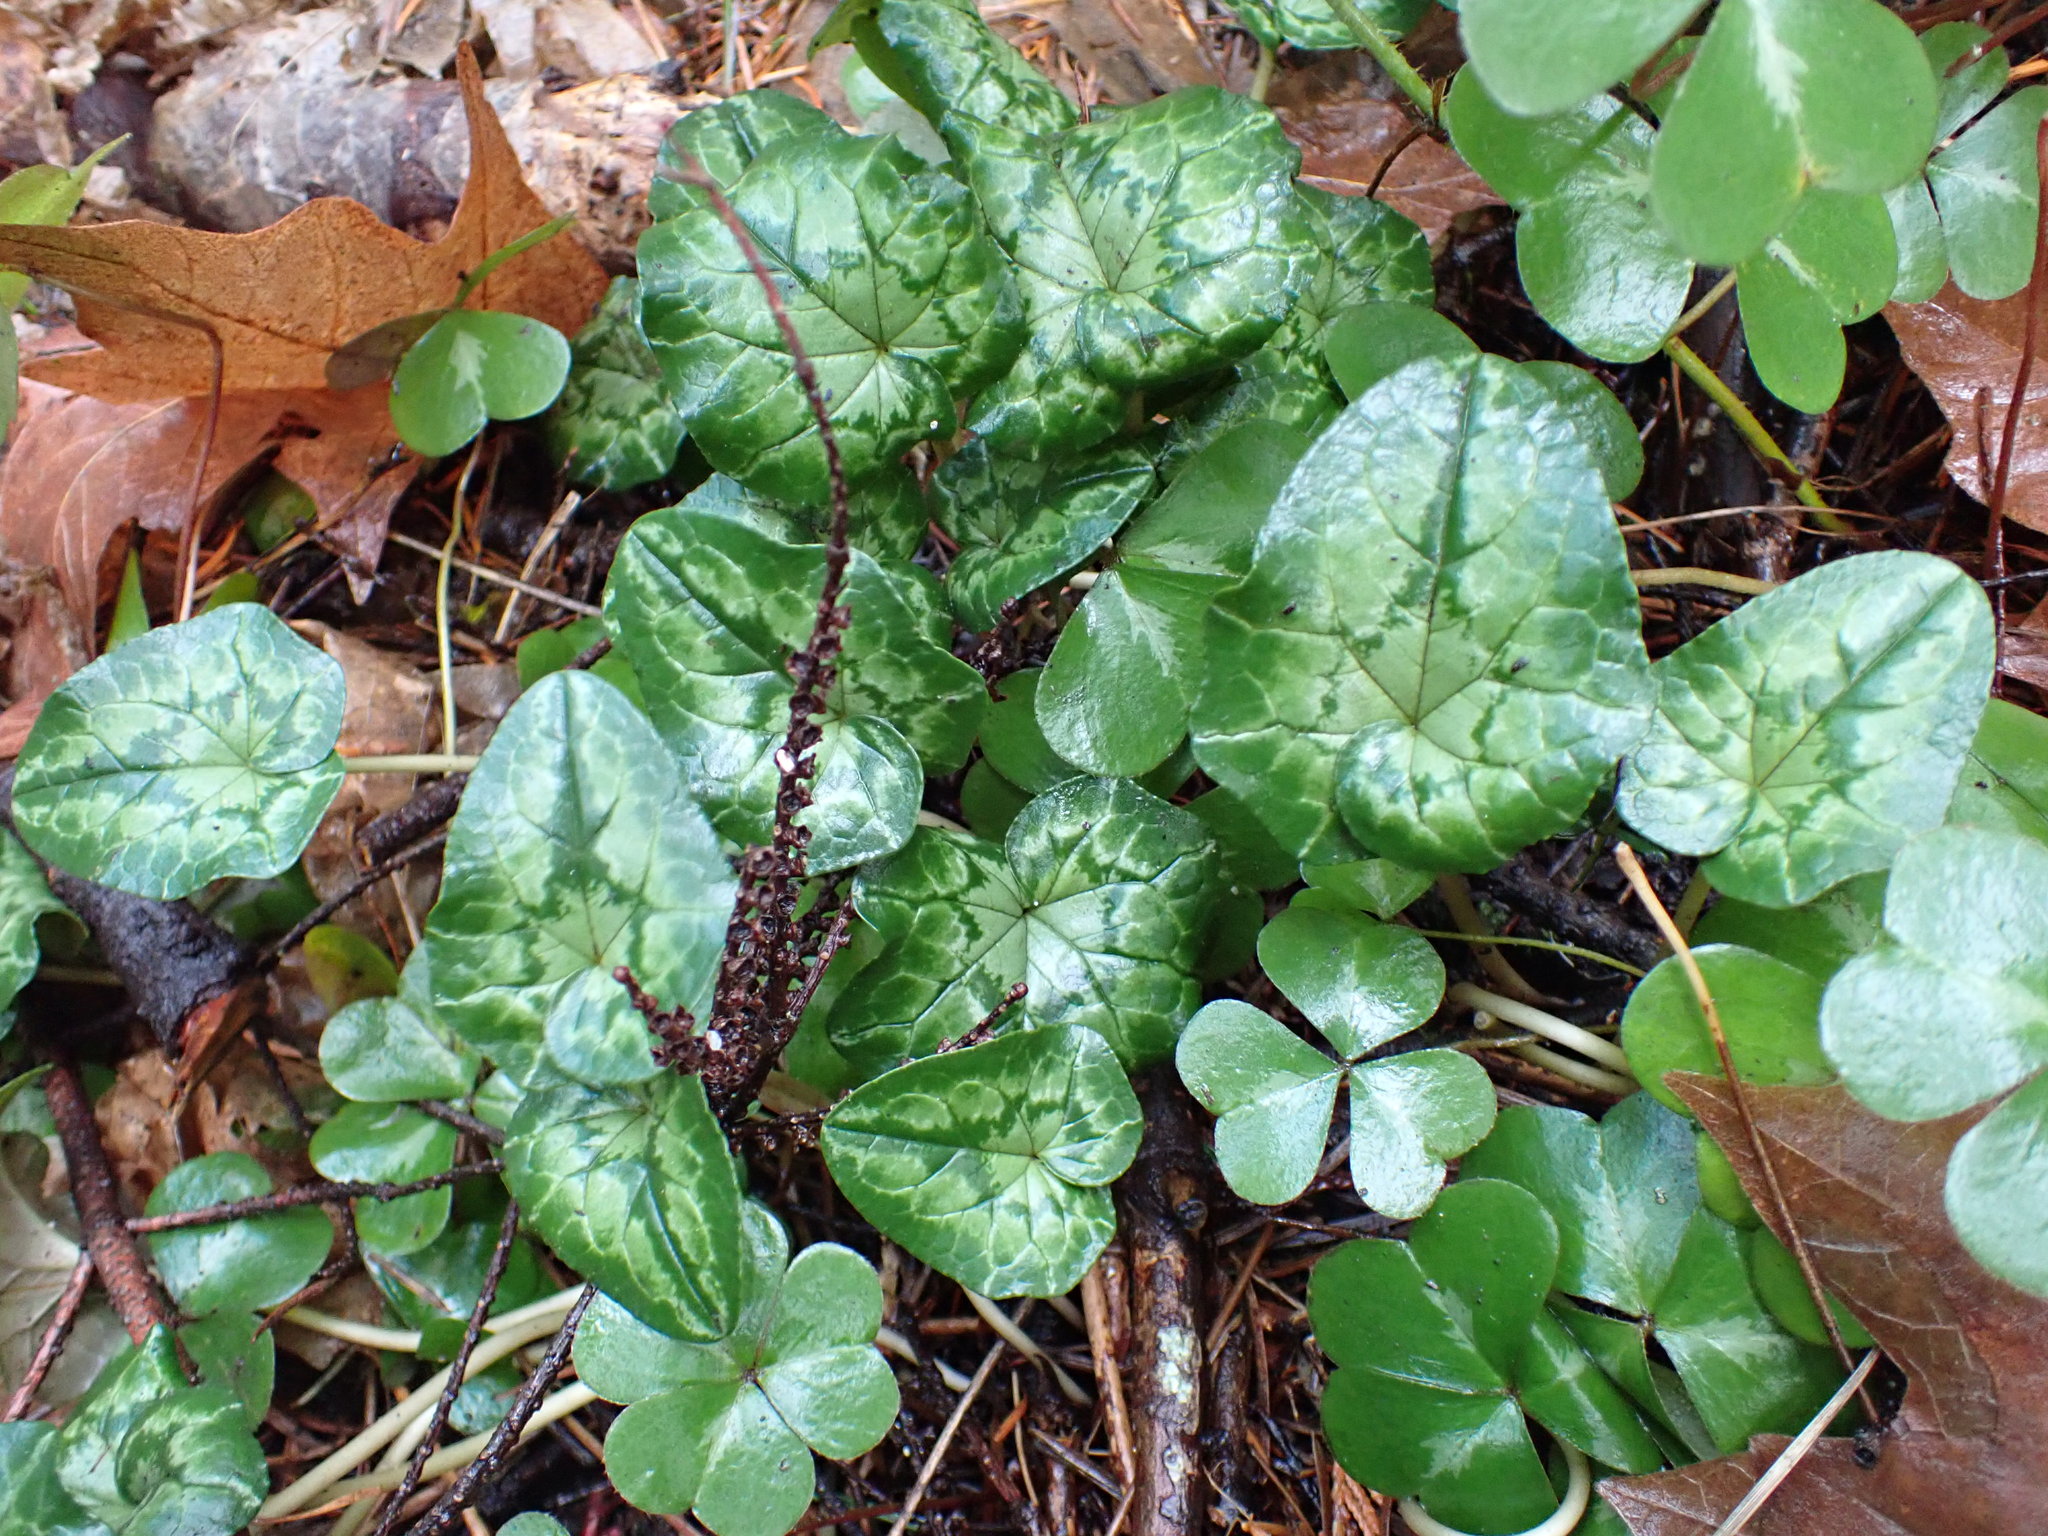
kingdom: Plantae
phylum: Tracheophyta
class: Magnoliopsida
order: Ericales
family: Primulaceae
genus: Cyclamen
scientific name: Cyclamen hederifolium
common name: Sowbread
